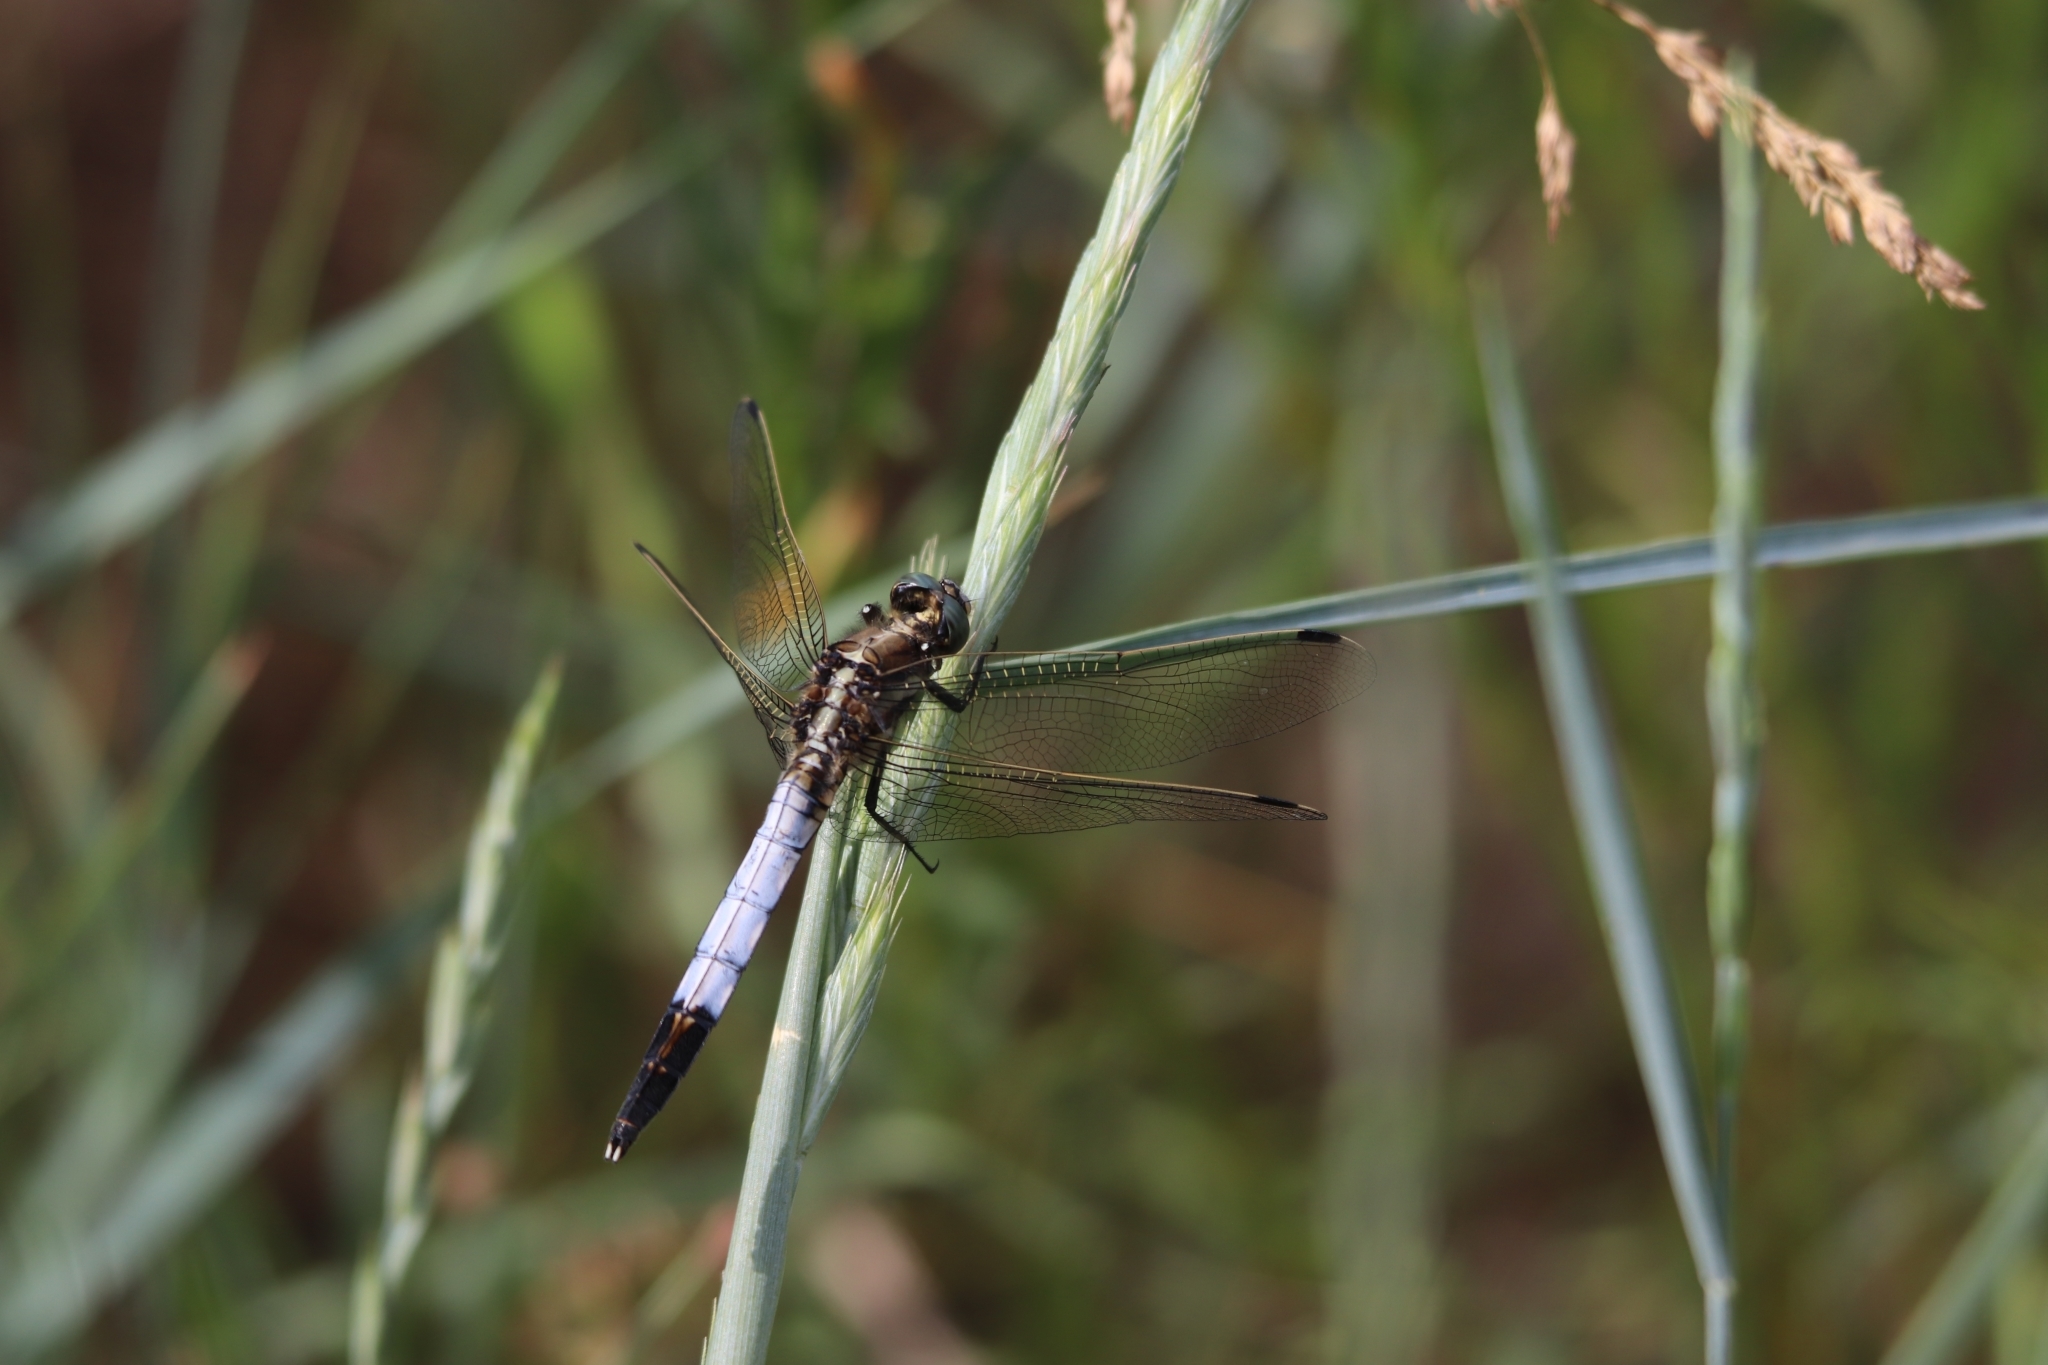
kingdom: Animalia
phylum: Arthropoda
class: Insecta
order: Odonata
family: Libellulidae
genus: Orthetrum
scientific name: Orthetrum albistylum
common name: White-tailed skimmer
